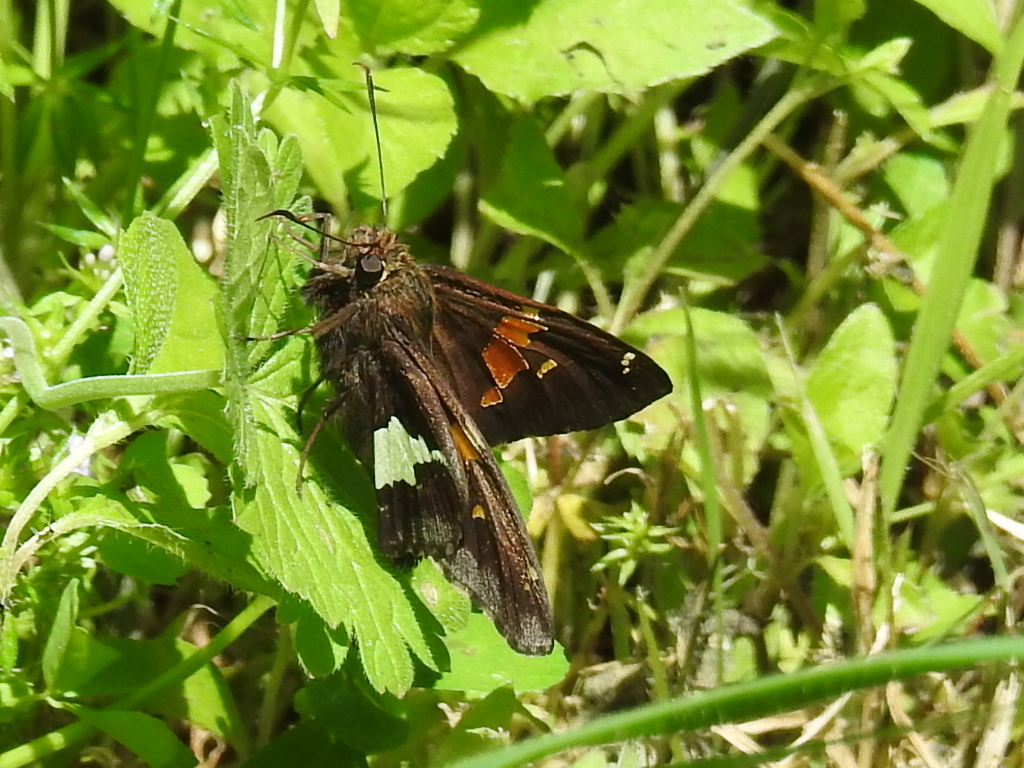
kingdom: Animalia
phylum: Arthropoda
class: Insecta
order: Lepidoptera
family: Hesperiidae
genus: Epargyreus
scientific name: Epargyreus clarus
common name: Silver-spotted skipper
